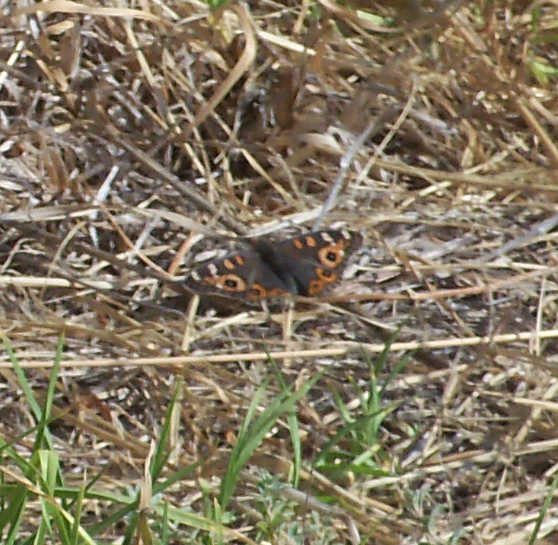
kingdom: Animalia
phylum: Arthropoda
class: Insecta
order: Lepidoptera
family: Nymphalidae
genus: Junonia
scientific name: Junonia villida
